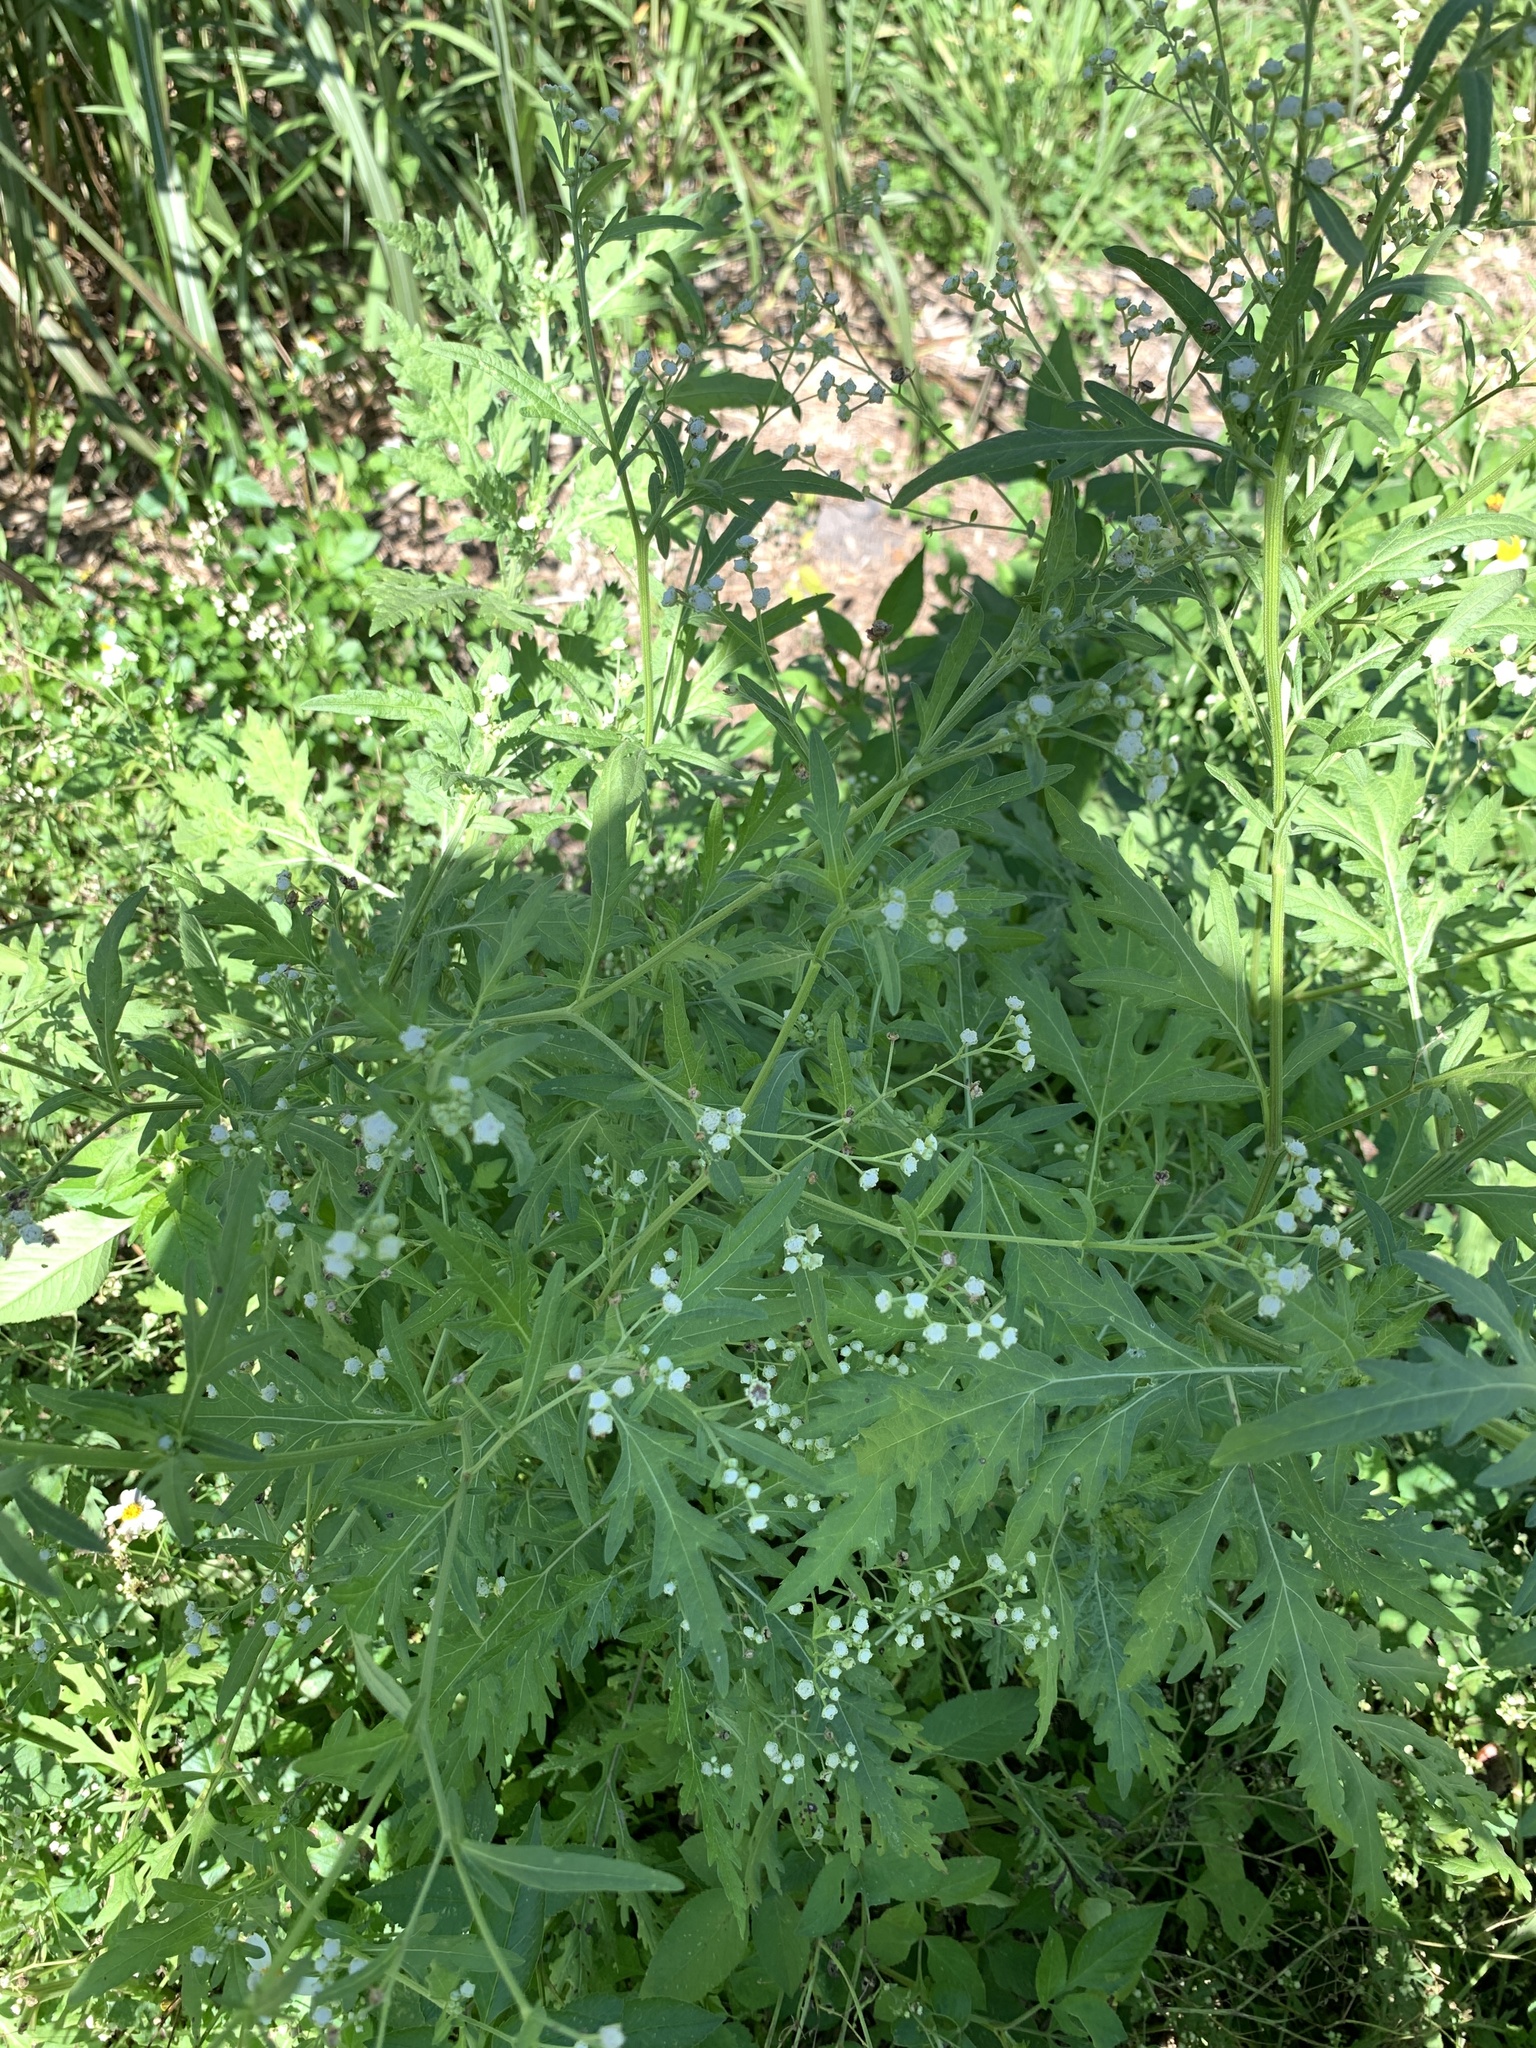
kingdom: Plantae
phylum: Tracheophyta
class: Magnoliopsida
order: Asterales
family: Asteraceae
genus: Parthenium
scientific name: Parthenium hysterophorus
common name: Santa maria feverfew
